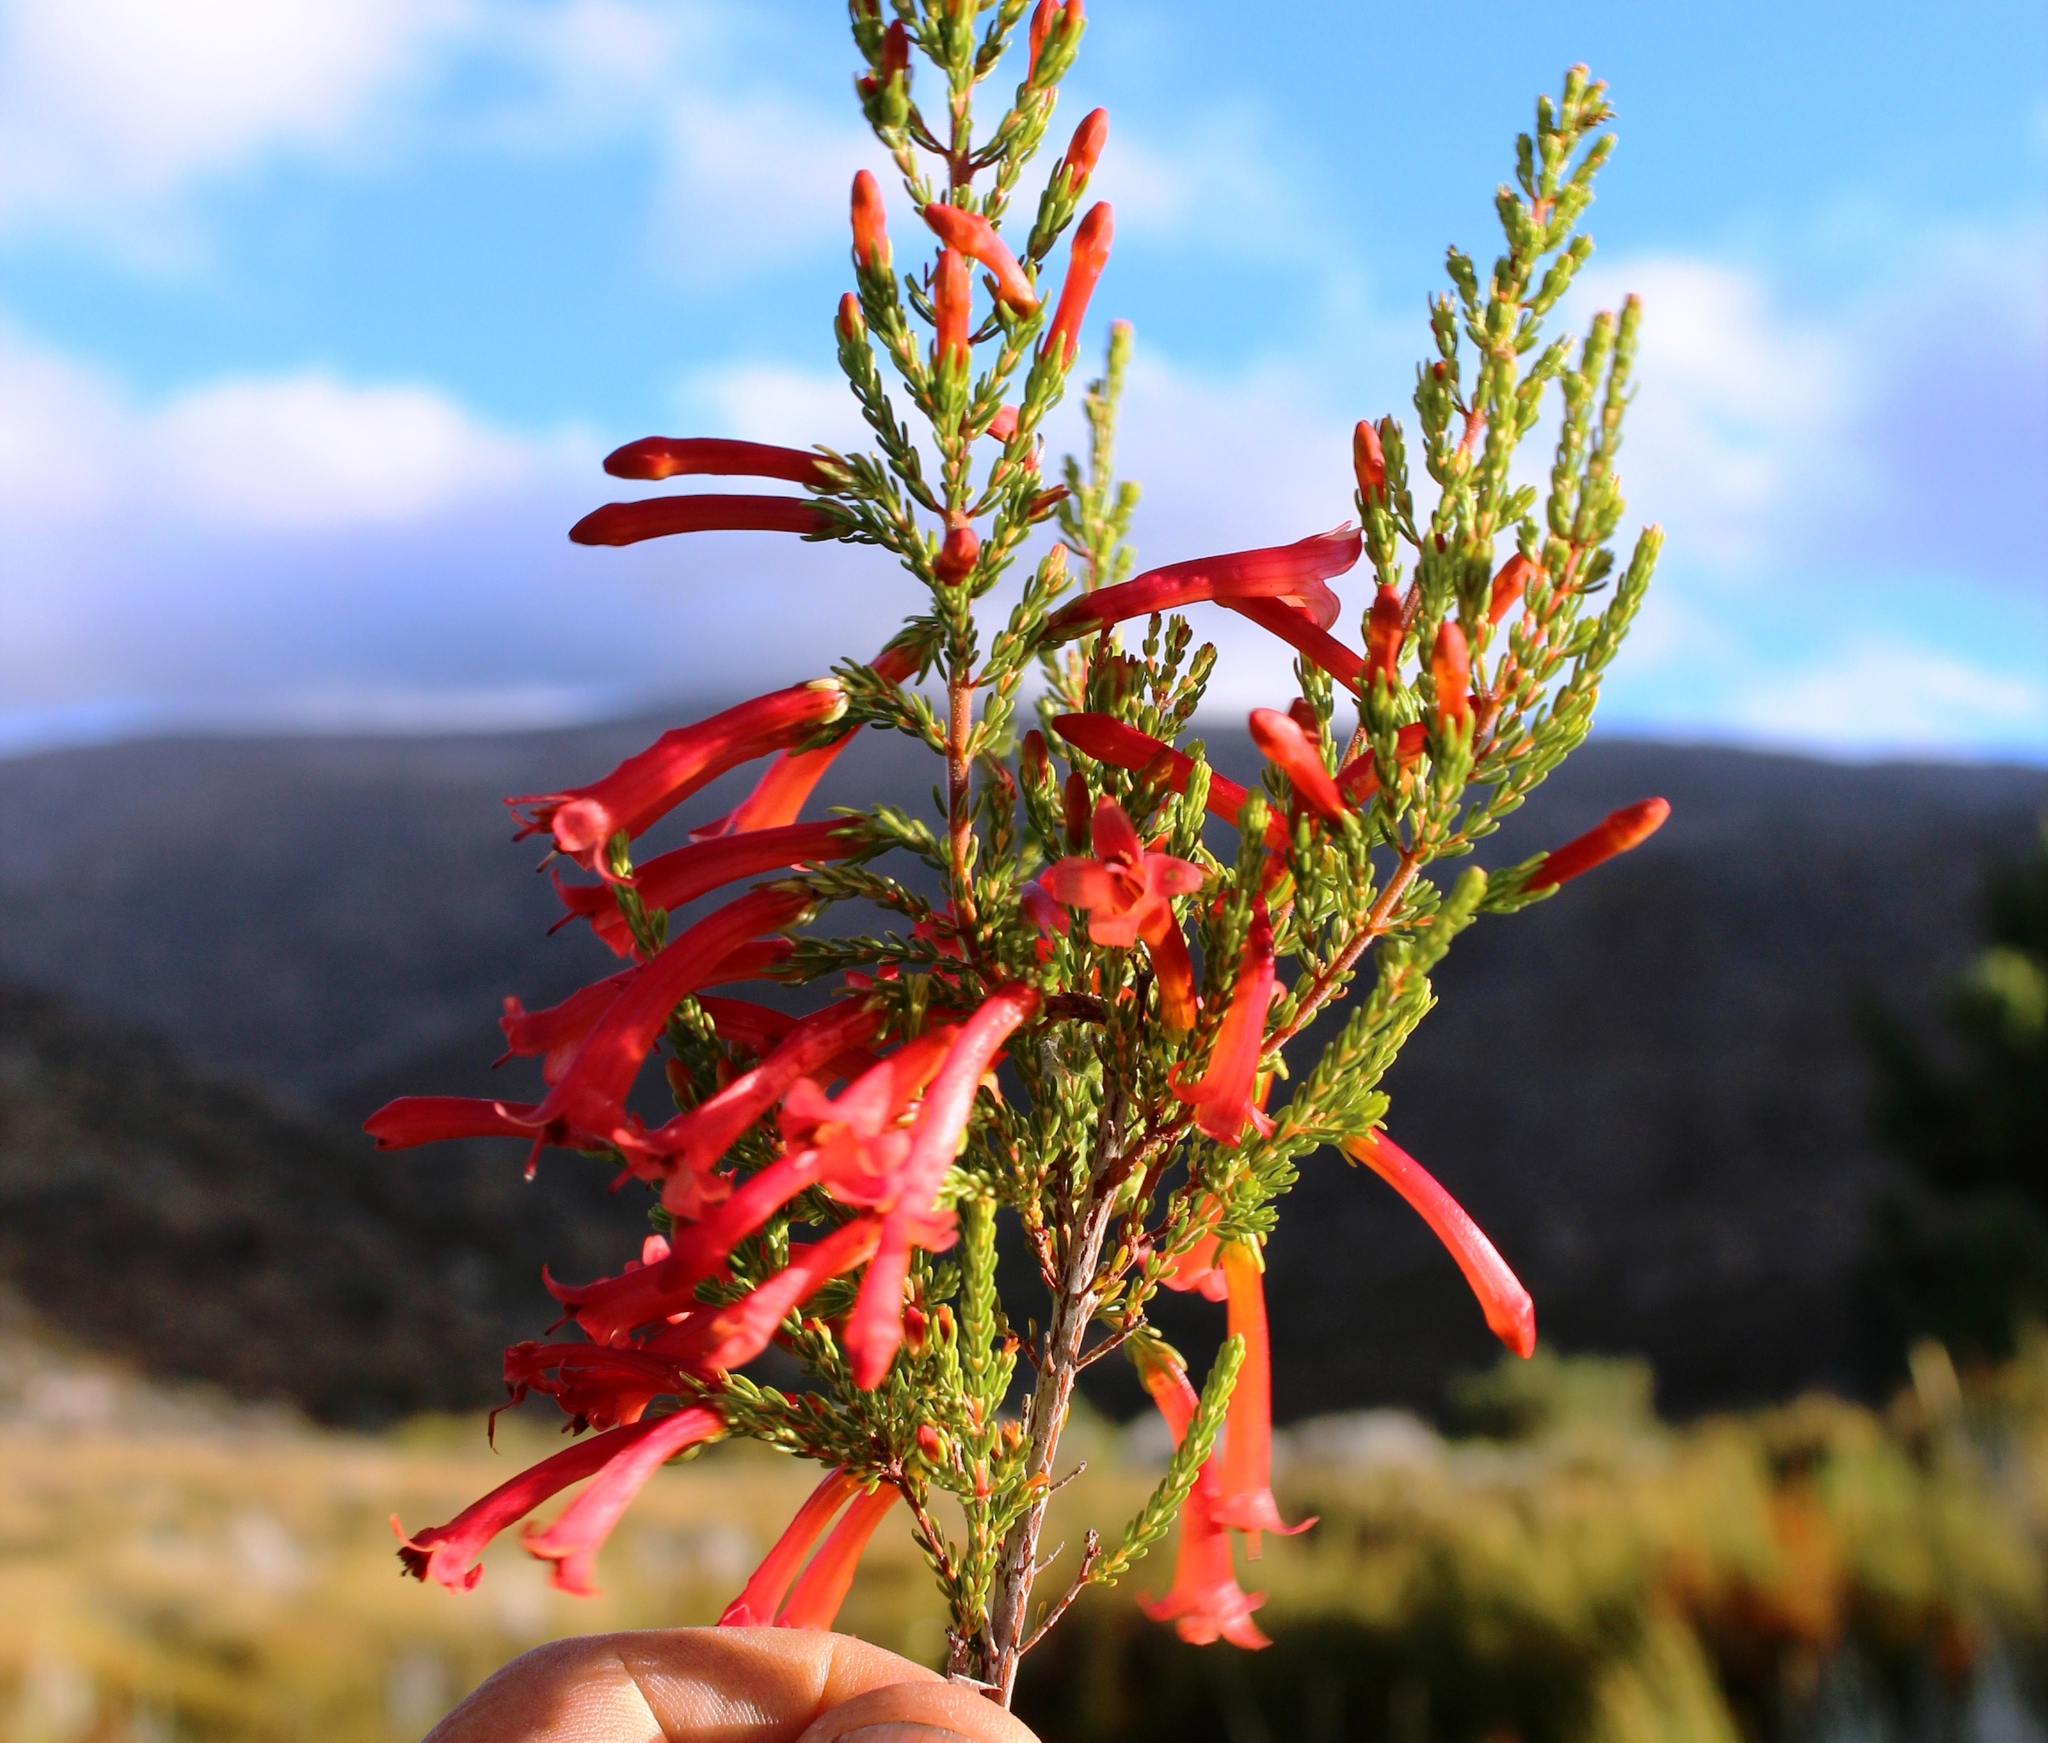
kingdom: Plantae
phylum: Tracheophyta
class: Magnoliopsida
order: Ericales
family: Ericaceae
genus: Erica
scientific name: Erica curviflora
